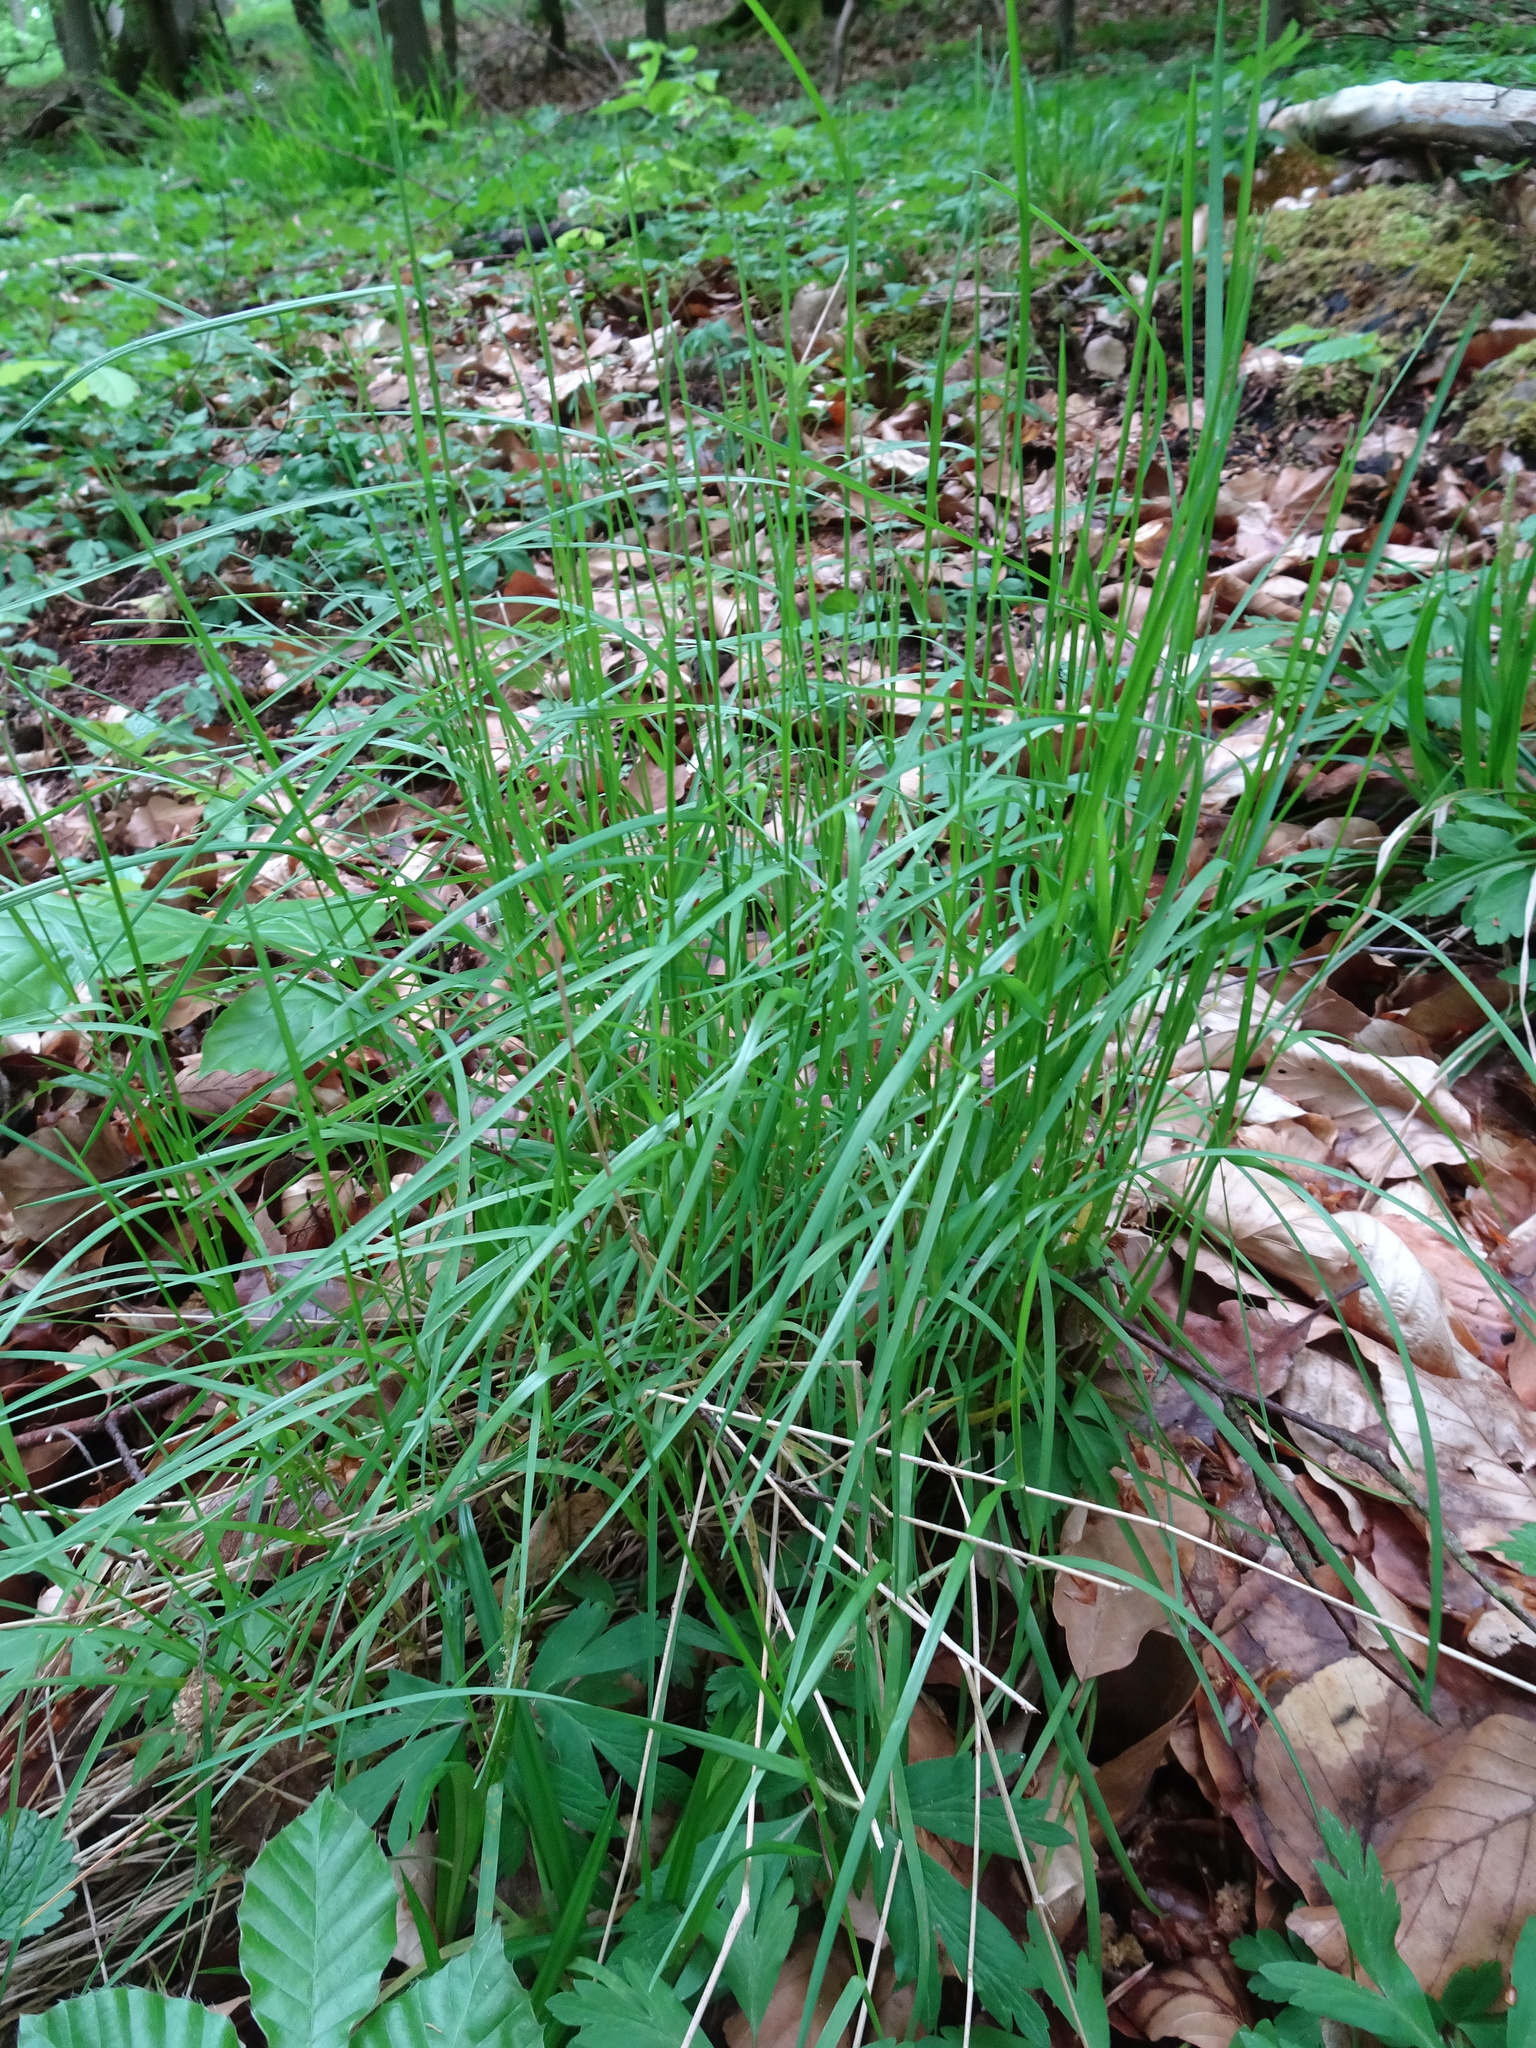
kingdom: Plantae
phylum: Tracheophyta
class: Liliopsida
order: Poales
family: Poaceae
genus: Poa
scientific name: Poa nemoralis
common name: Wood bluegrass
